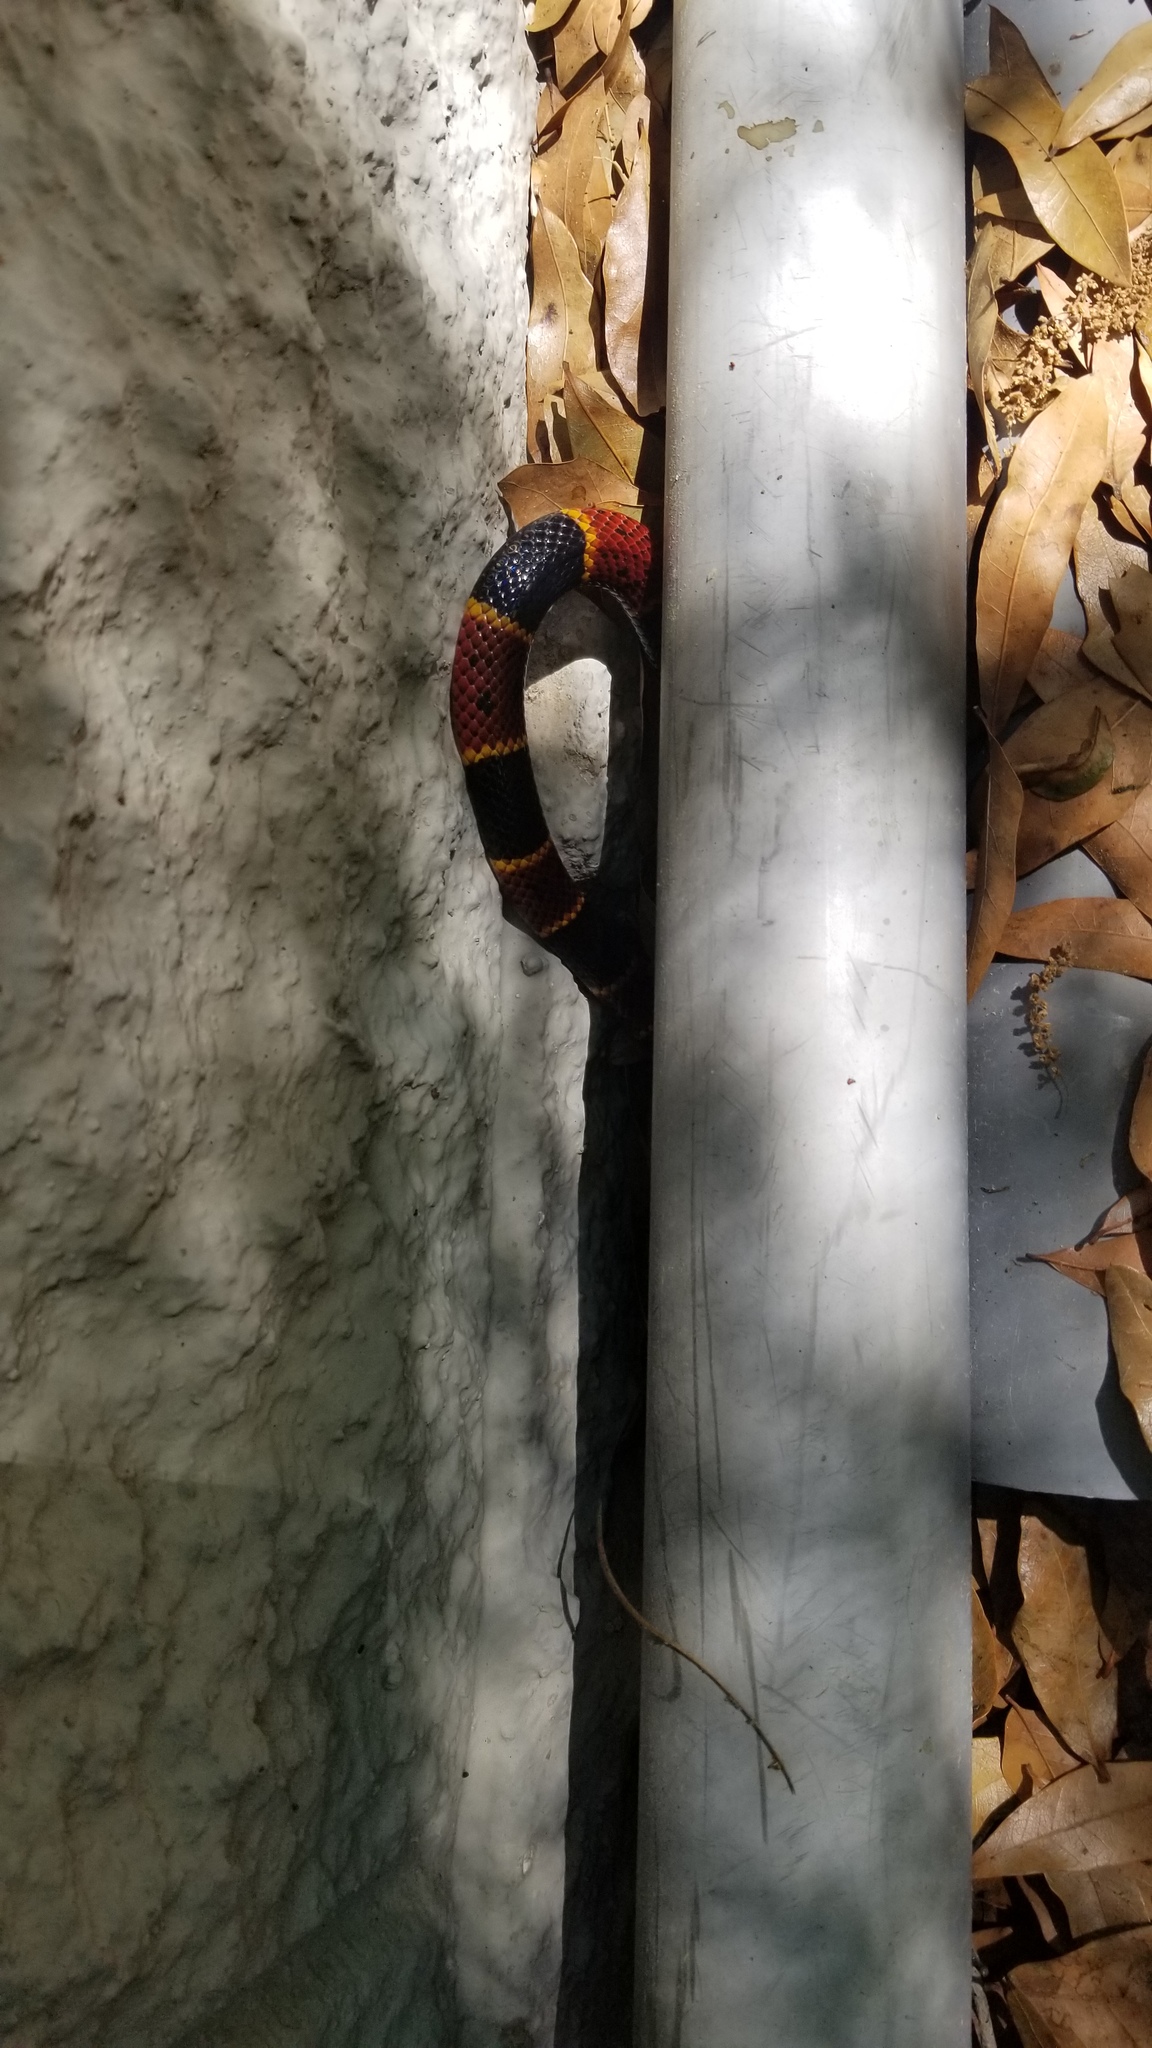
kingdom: Animalia
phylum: Chordata
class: Squamata
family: Elapidae
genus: Micrurus
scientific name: Micrurus fulvius
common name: Eastern coral snake
